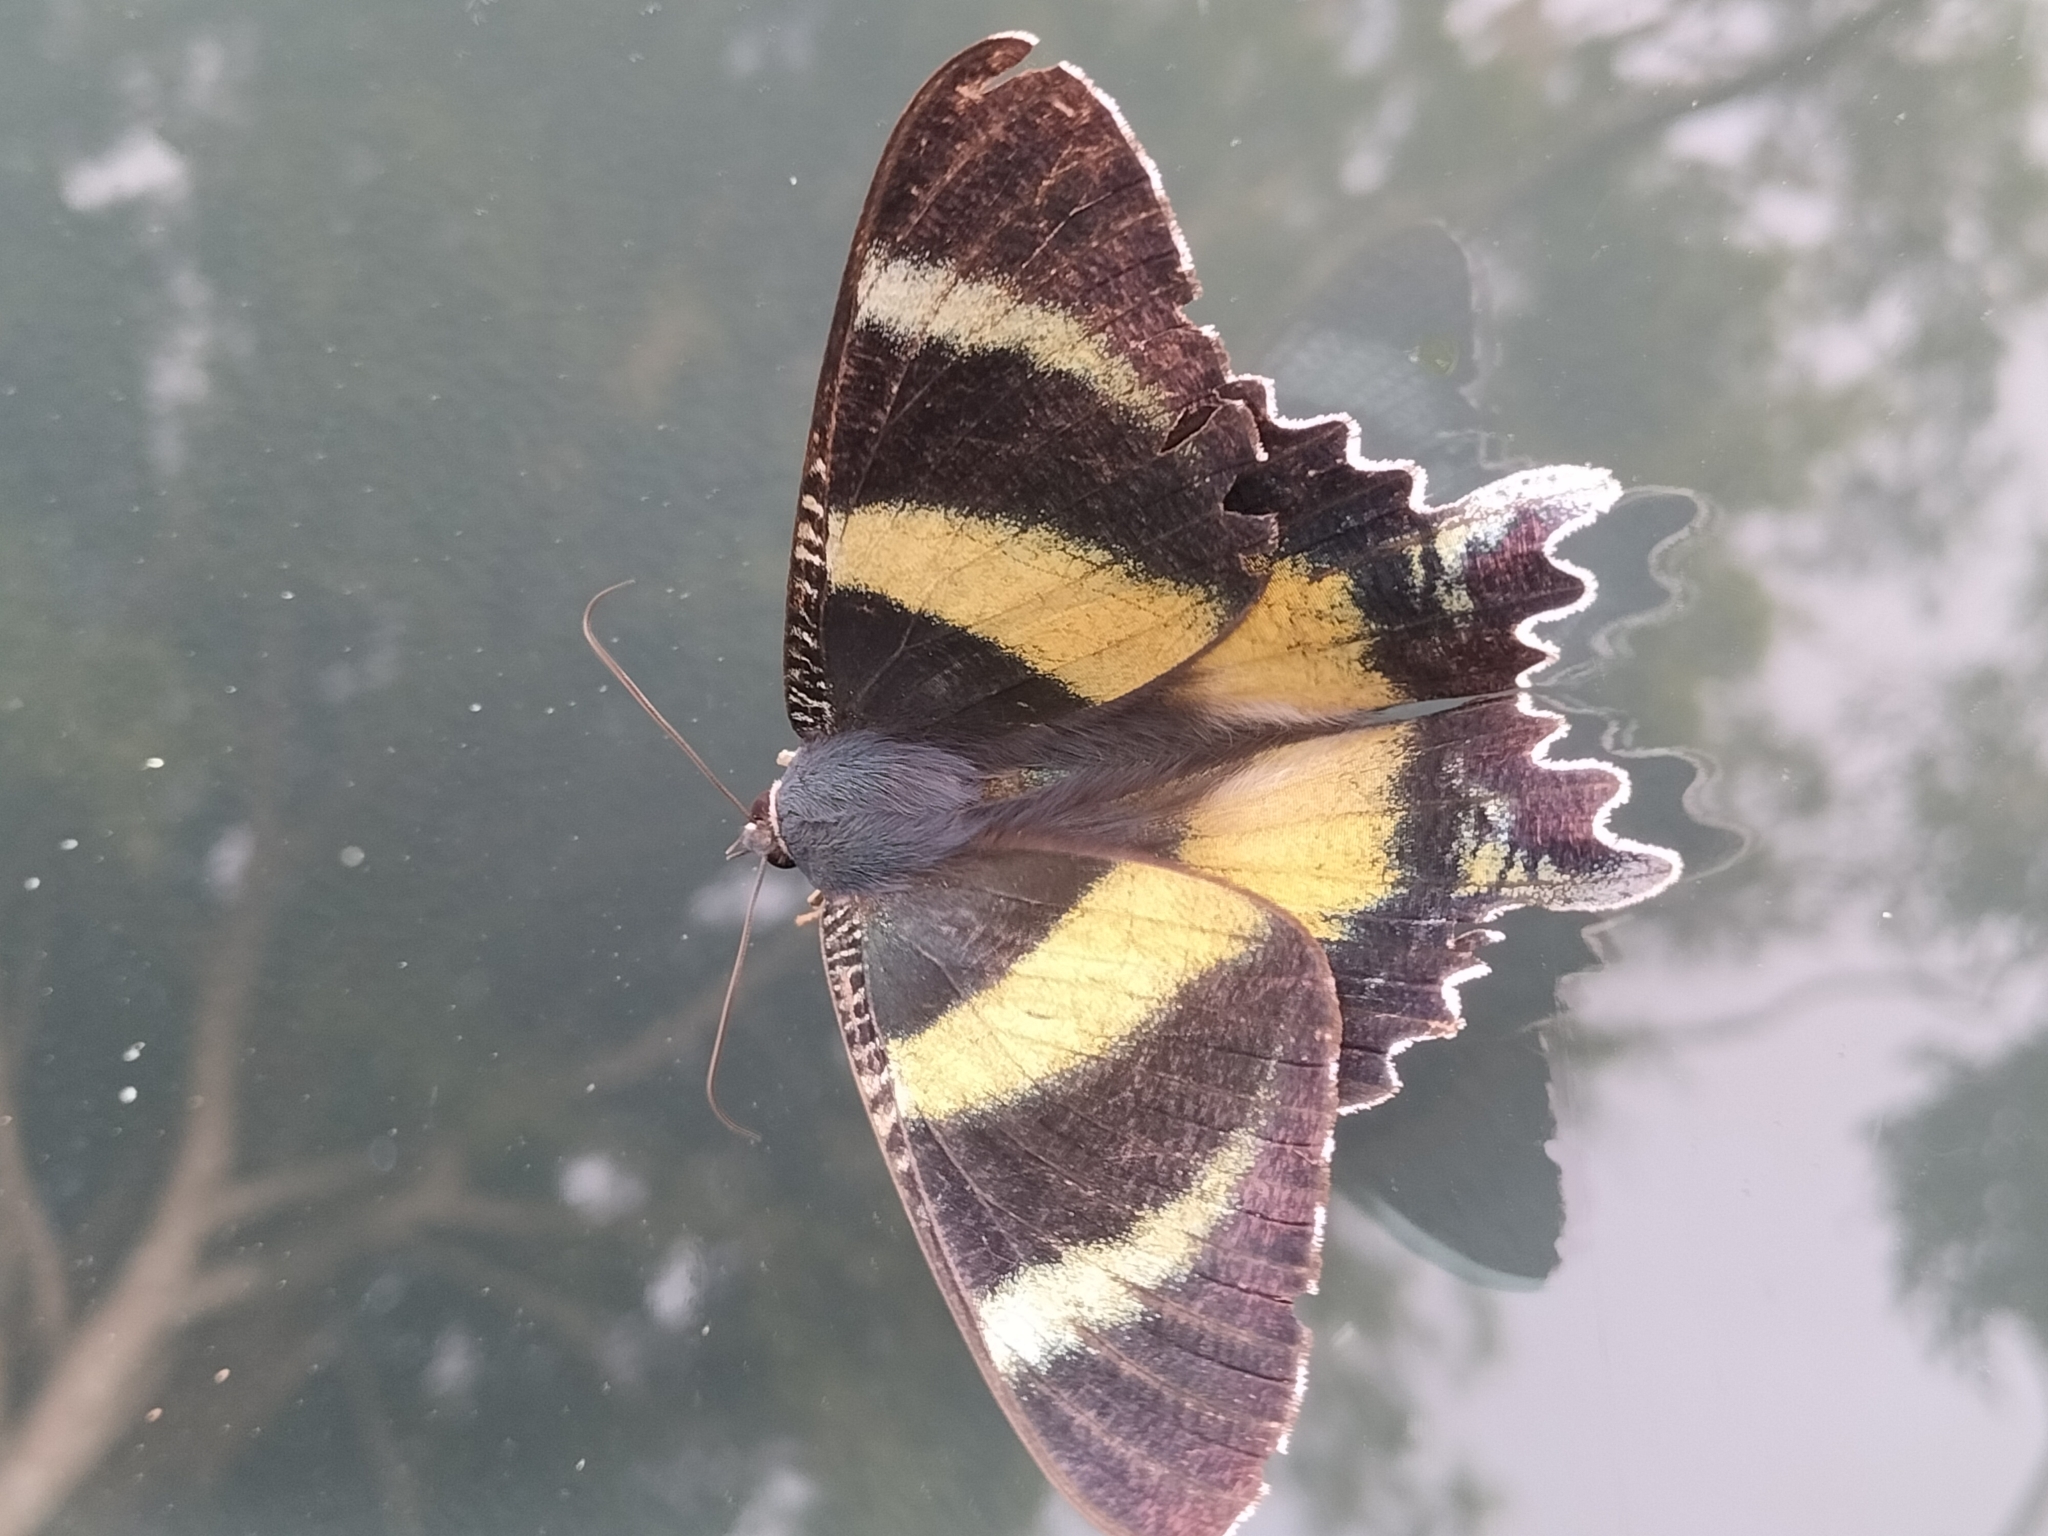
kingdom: Animalia
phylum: Arthropoda
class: Insecta
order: Lepidoptera
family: Uraniidae
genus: Alcides
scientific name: Alcides metaurus
